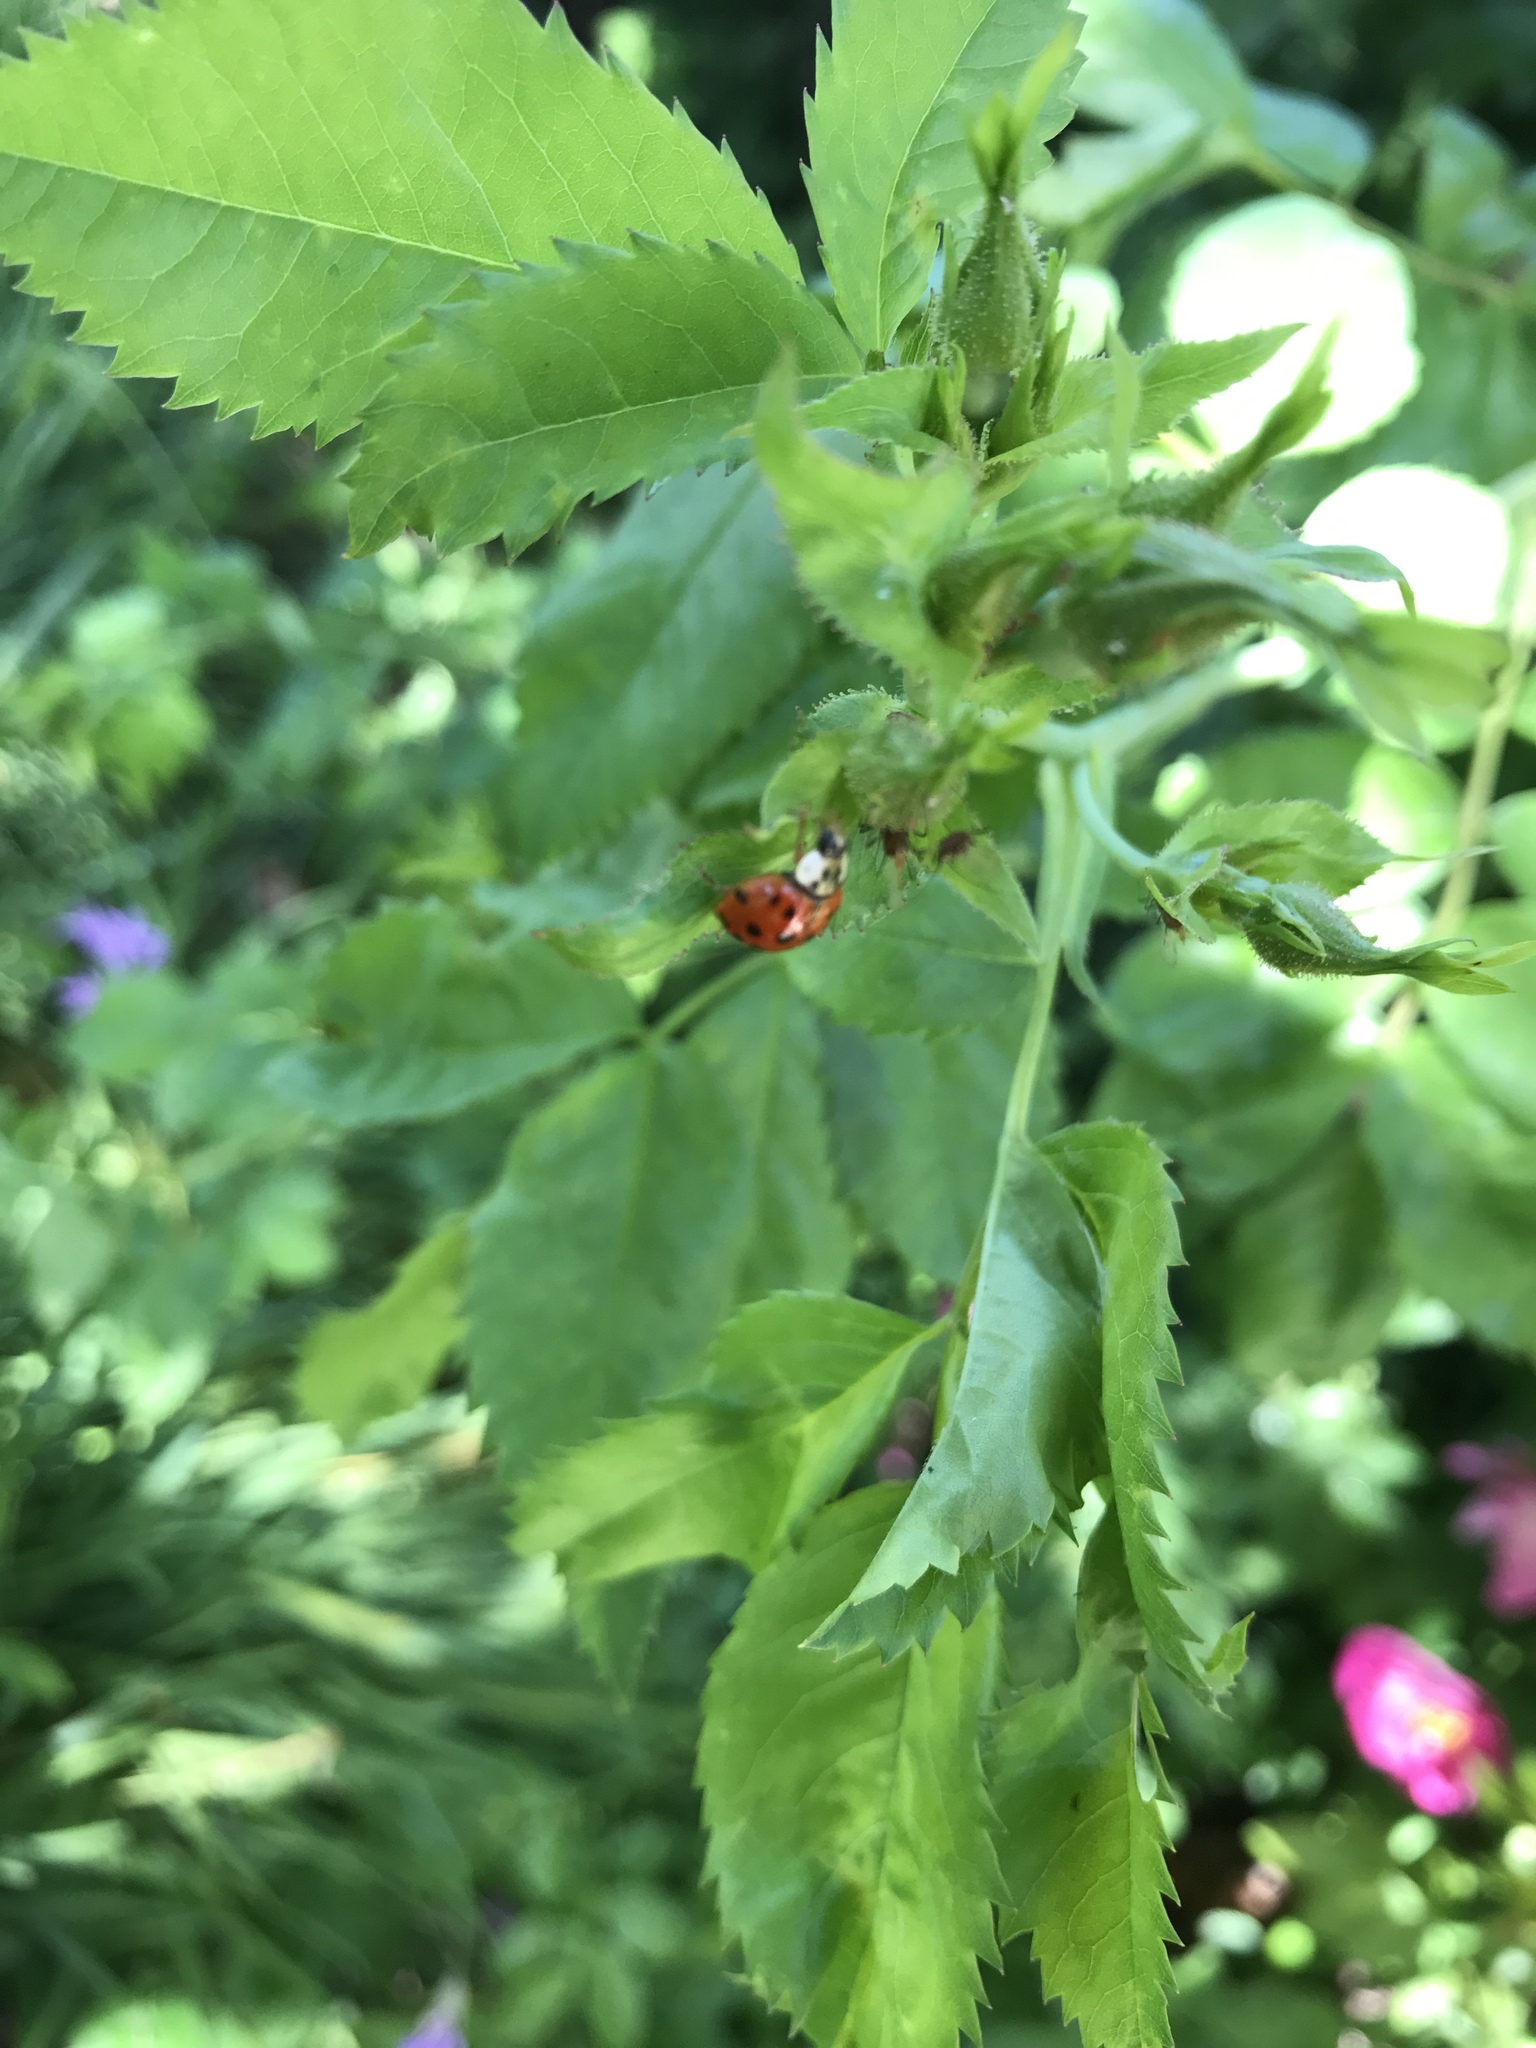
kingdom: Animalia
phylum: Arthropoda
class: Insecta
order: Coleoptera
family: Coccinellidae
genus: Harmonia
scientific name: Harmonia axyridis
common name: Harlequin ladybird
